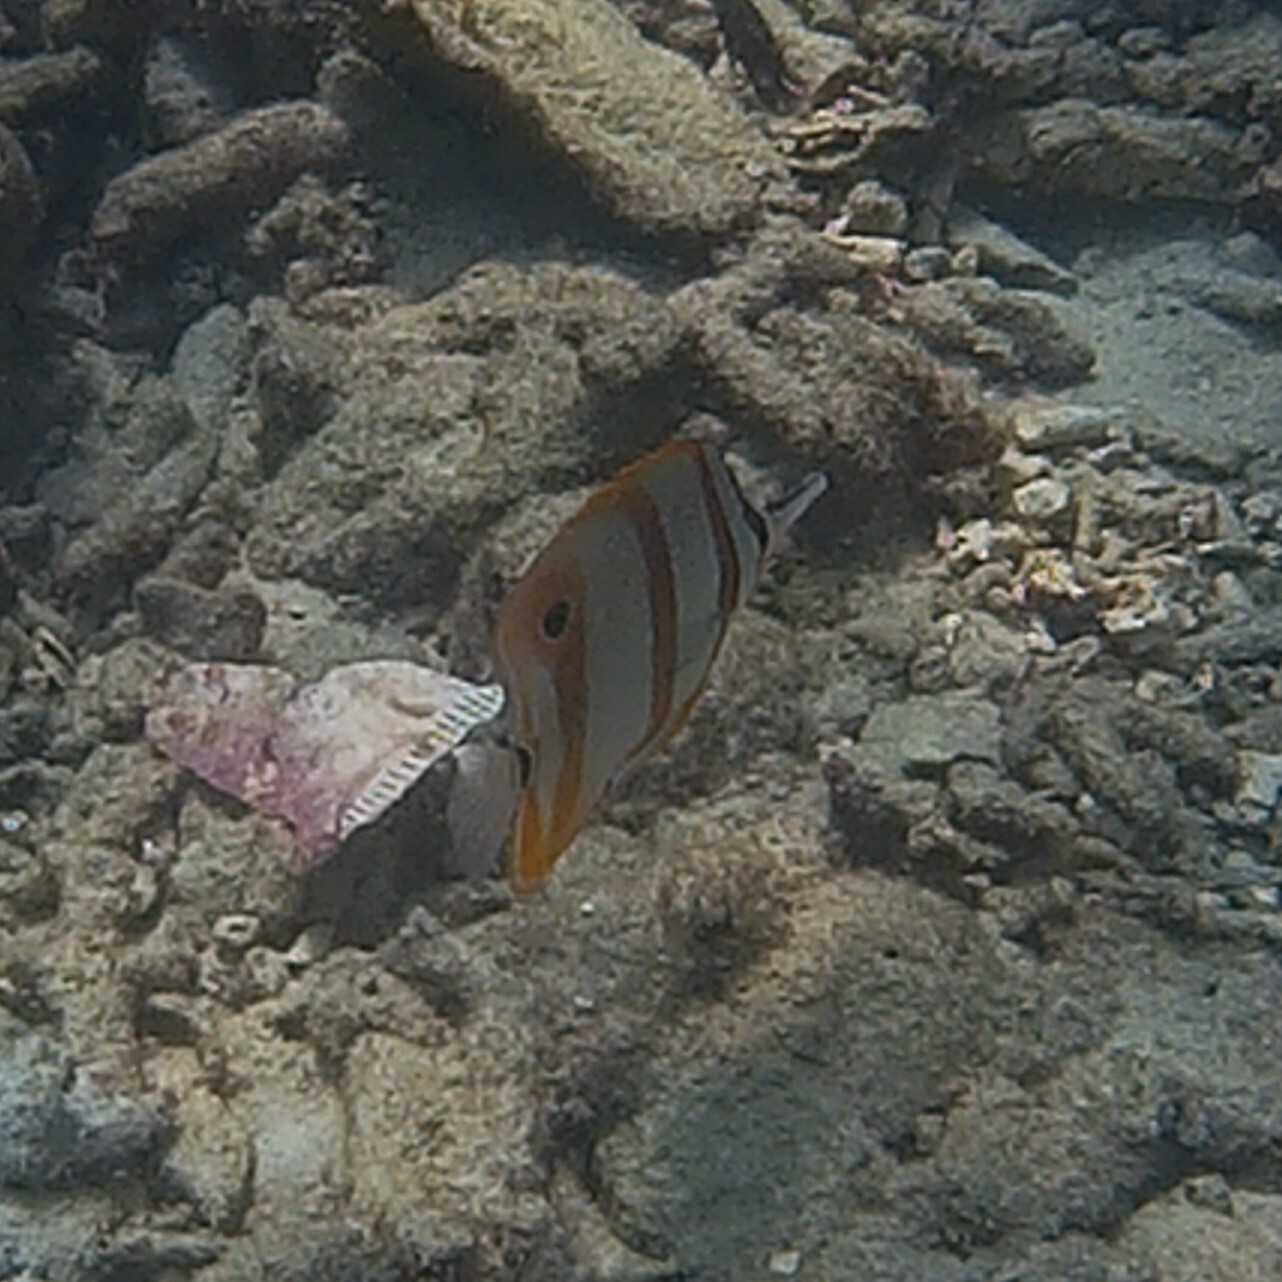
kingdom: Animalia
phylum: Chordata
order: Perciformes
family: Chaetodontidae
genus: Chelmon
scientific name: Chelmon rostratus
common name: Beaked butterflyfish
